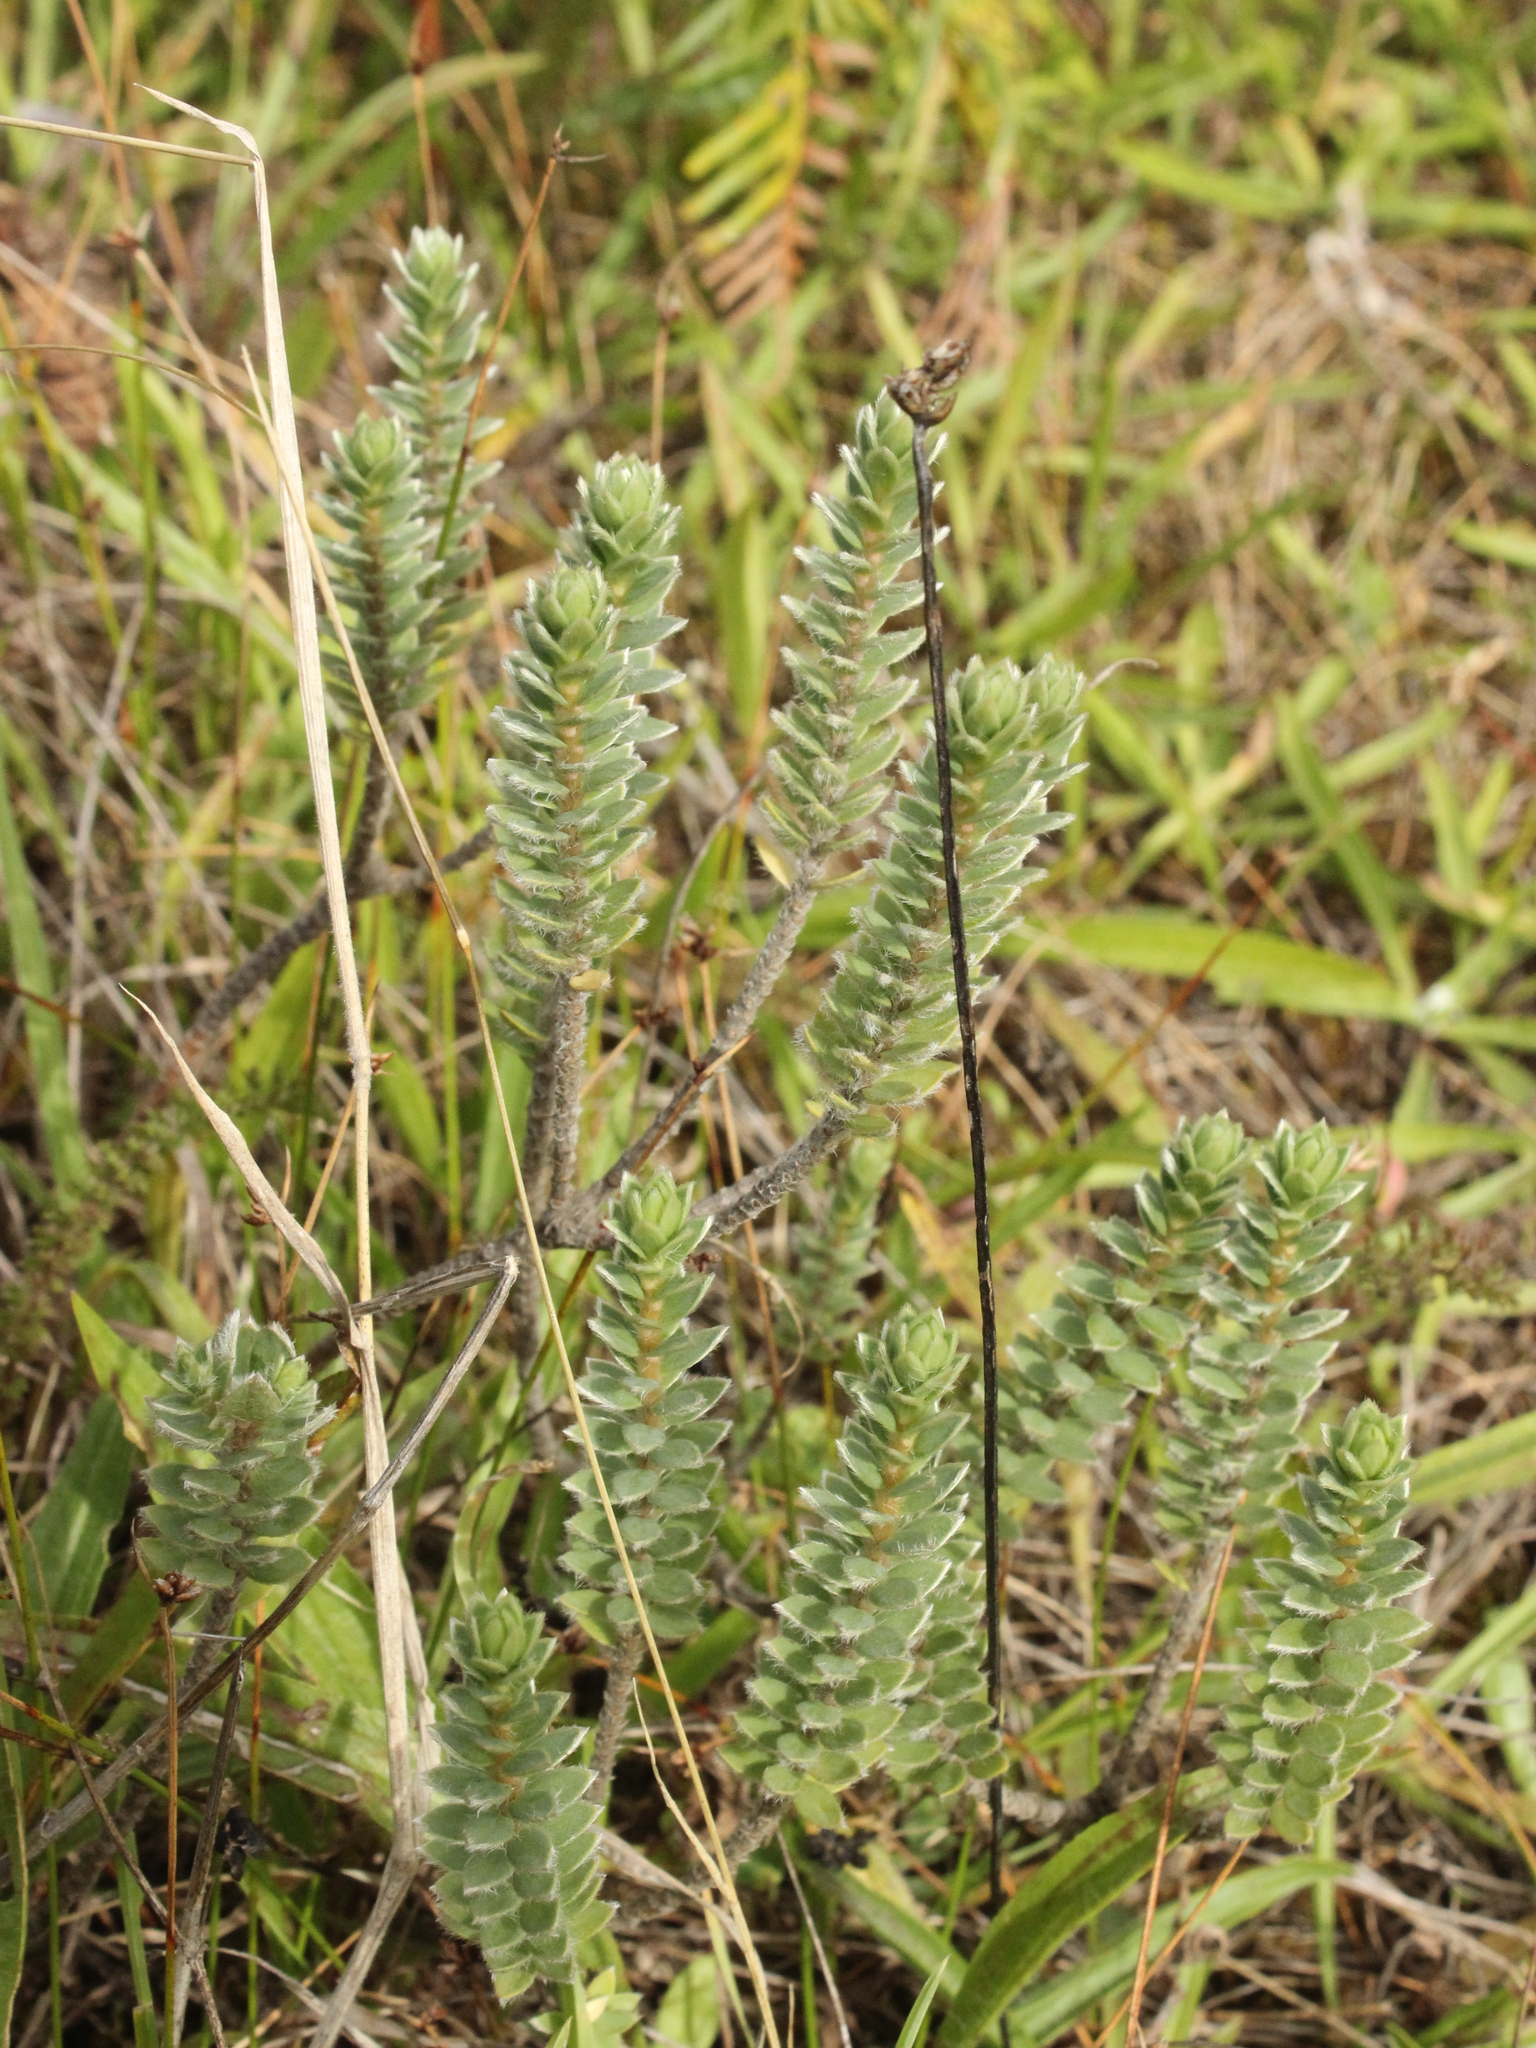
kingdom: Plantae
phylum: Tracheophyta
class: Magnoliopsida
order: Malvales
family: Thymelaeaceae
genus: Pimelea
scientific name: Pimelea villosa
